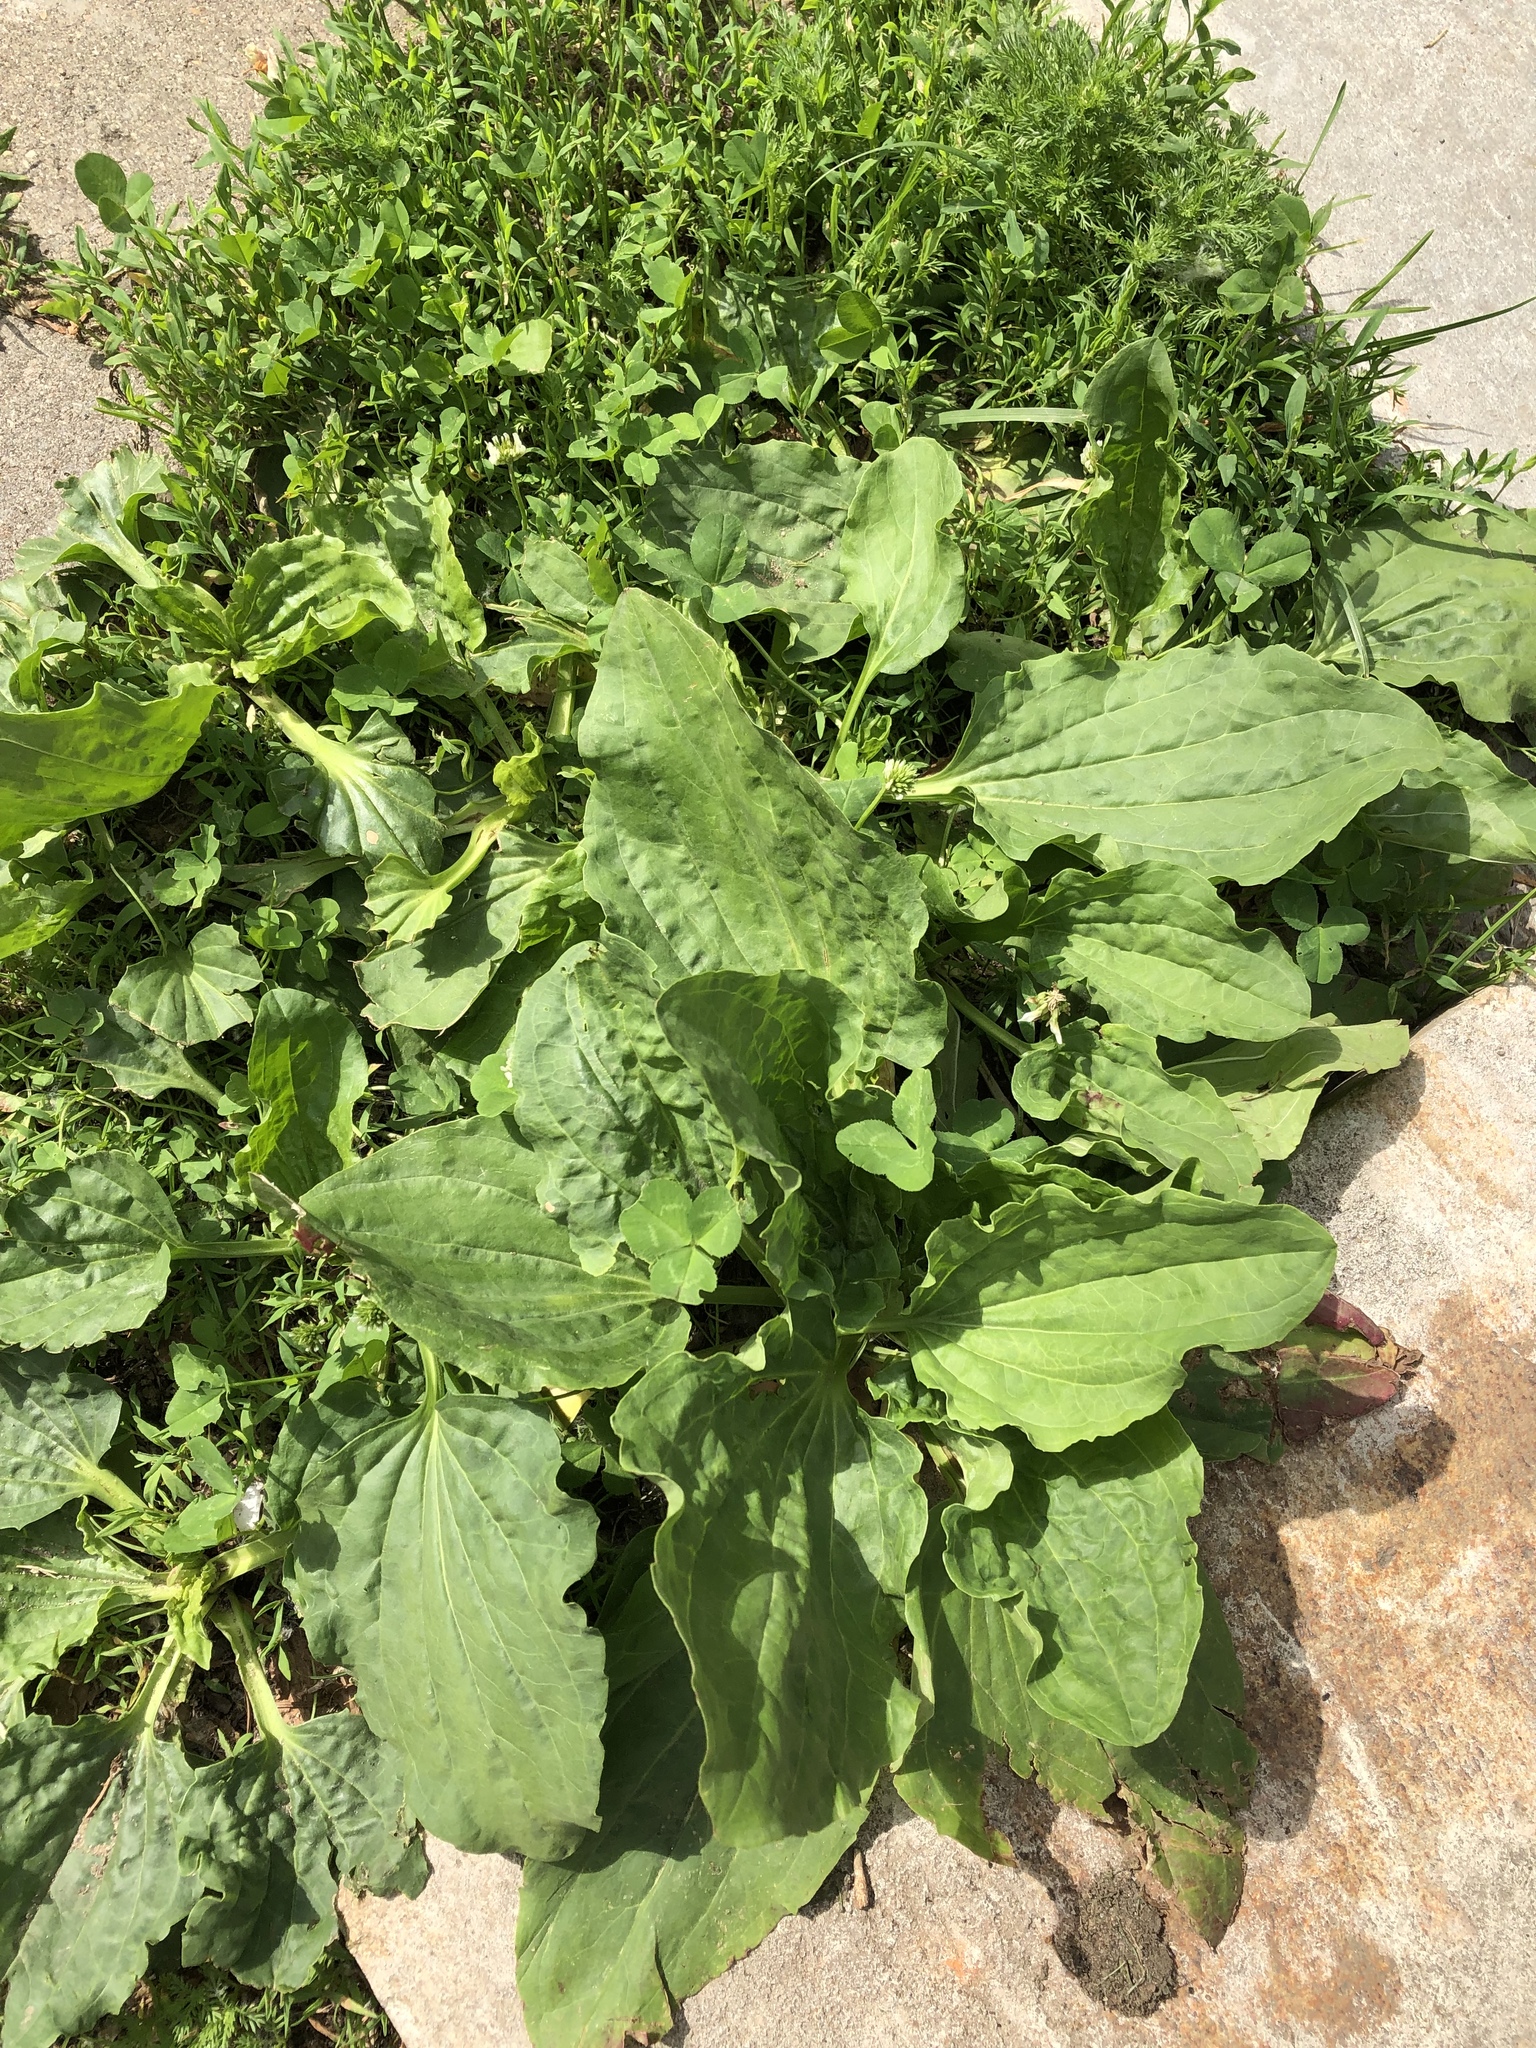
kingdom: Plantae
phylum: Tracheophyta
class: Magnoliopsida
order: Lamiales
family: Plantaginaceae
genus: Plantago
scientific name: Plantago major
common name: Common plantain
